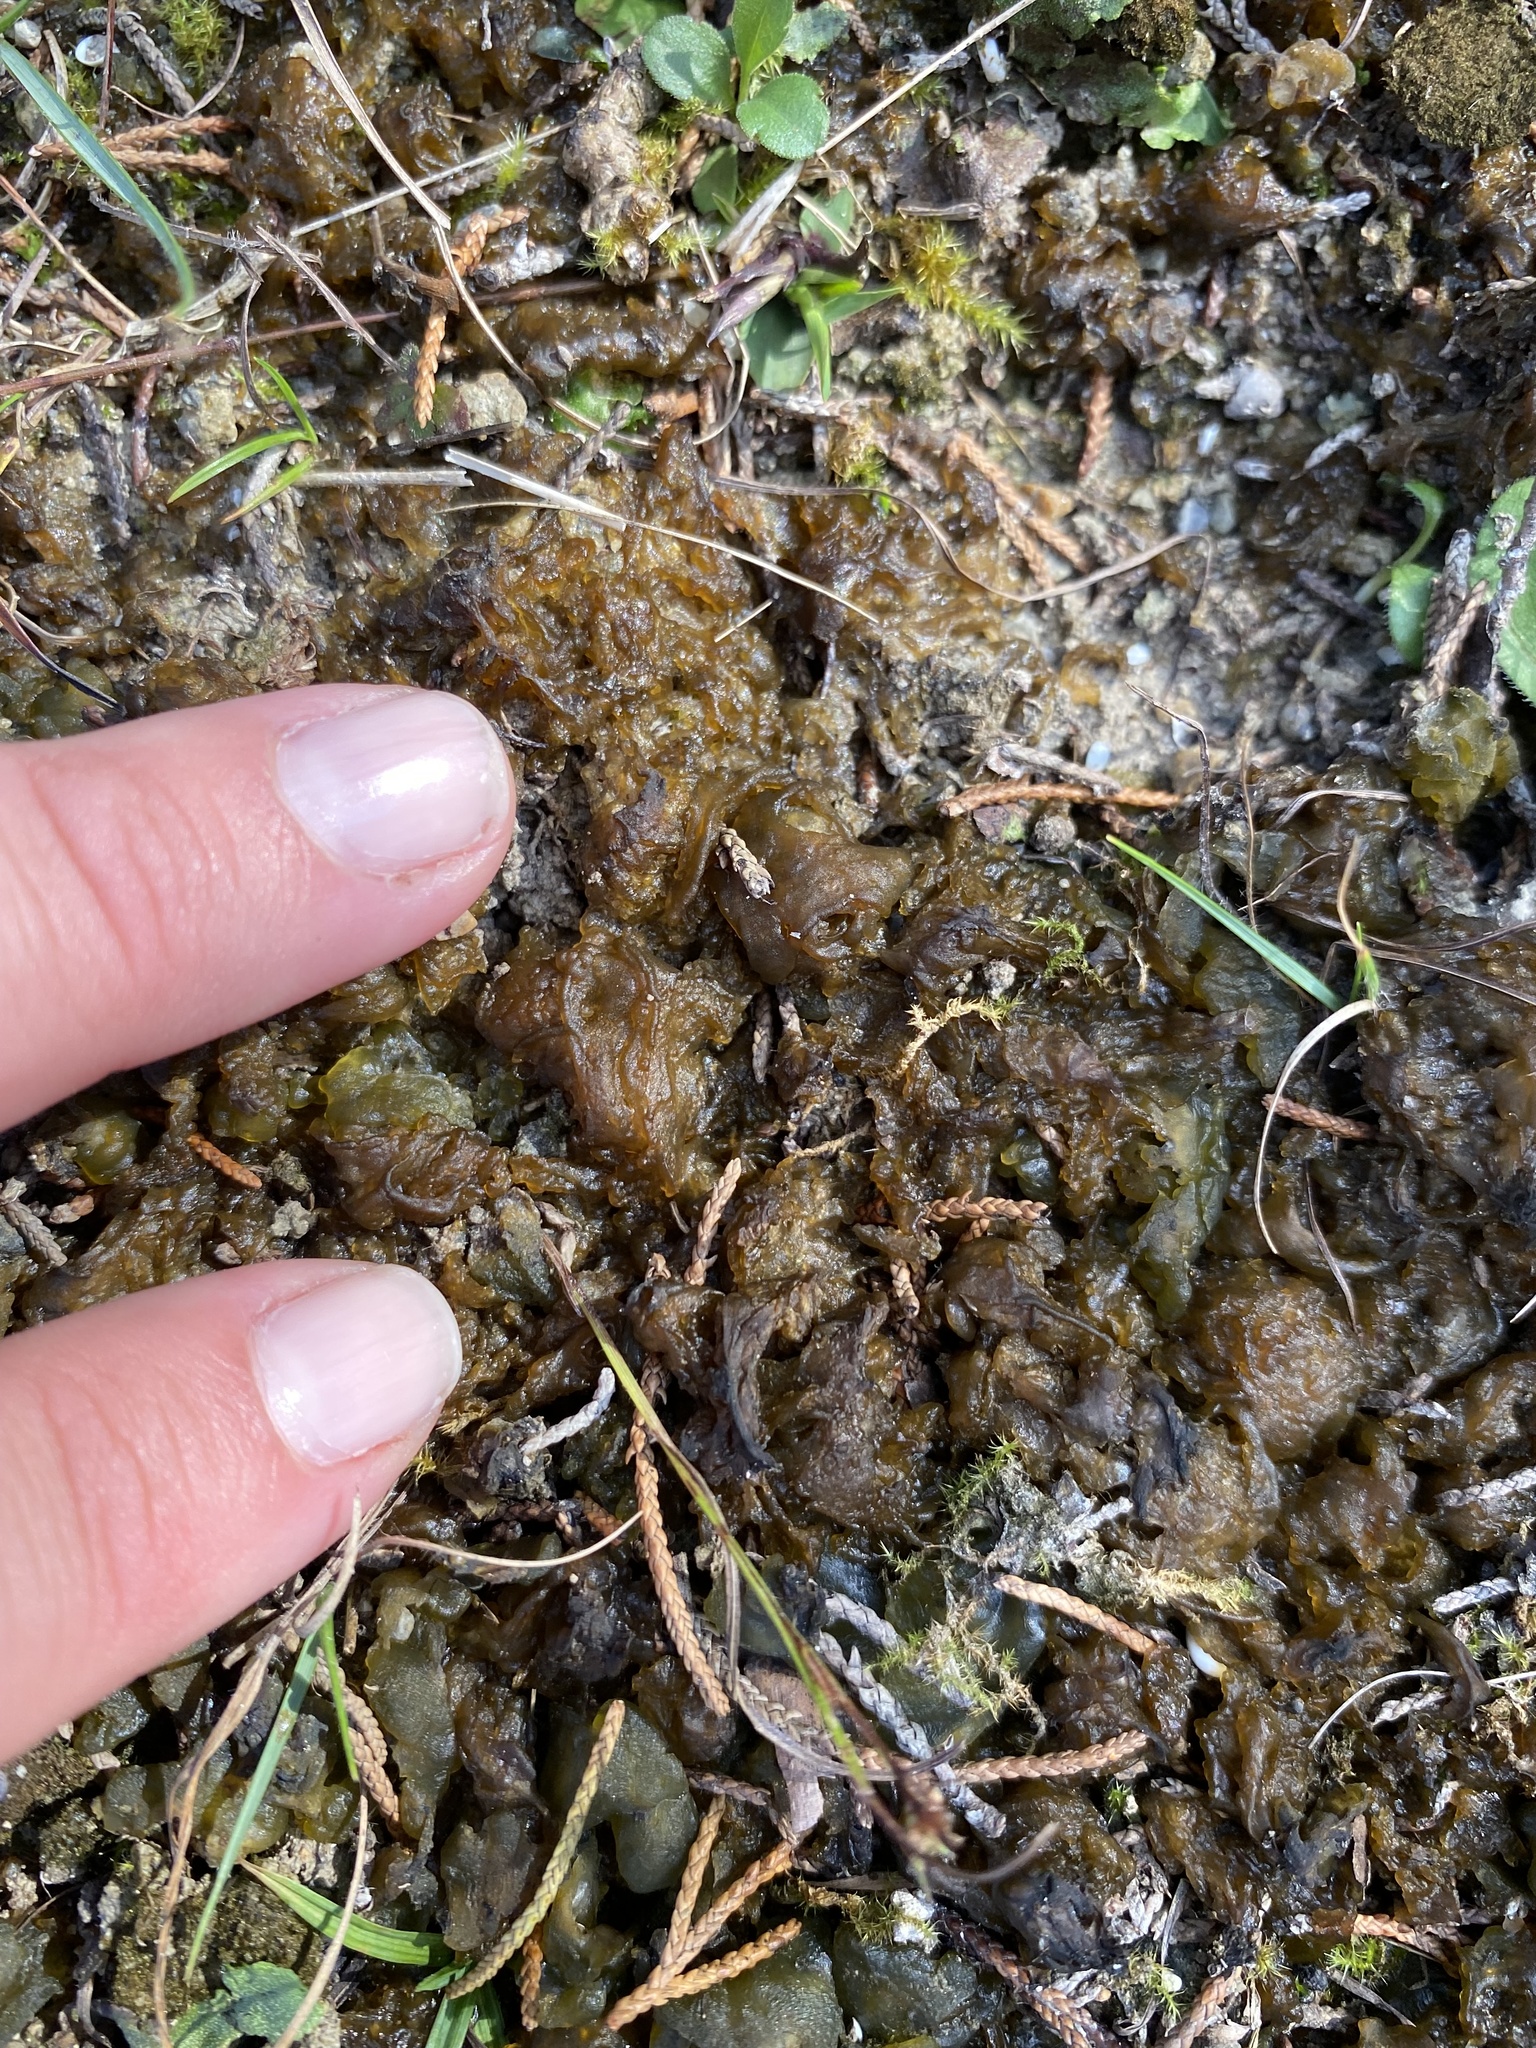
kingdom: Bacteria
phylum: Cyanobacteria
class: Cyanobacteriia
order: Cyanobacteriales
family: Nostocaceae
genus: Nostoc
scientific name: Nostoc commune
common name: Star jelly
